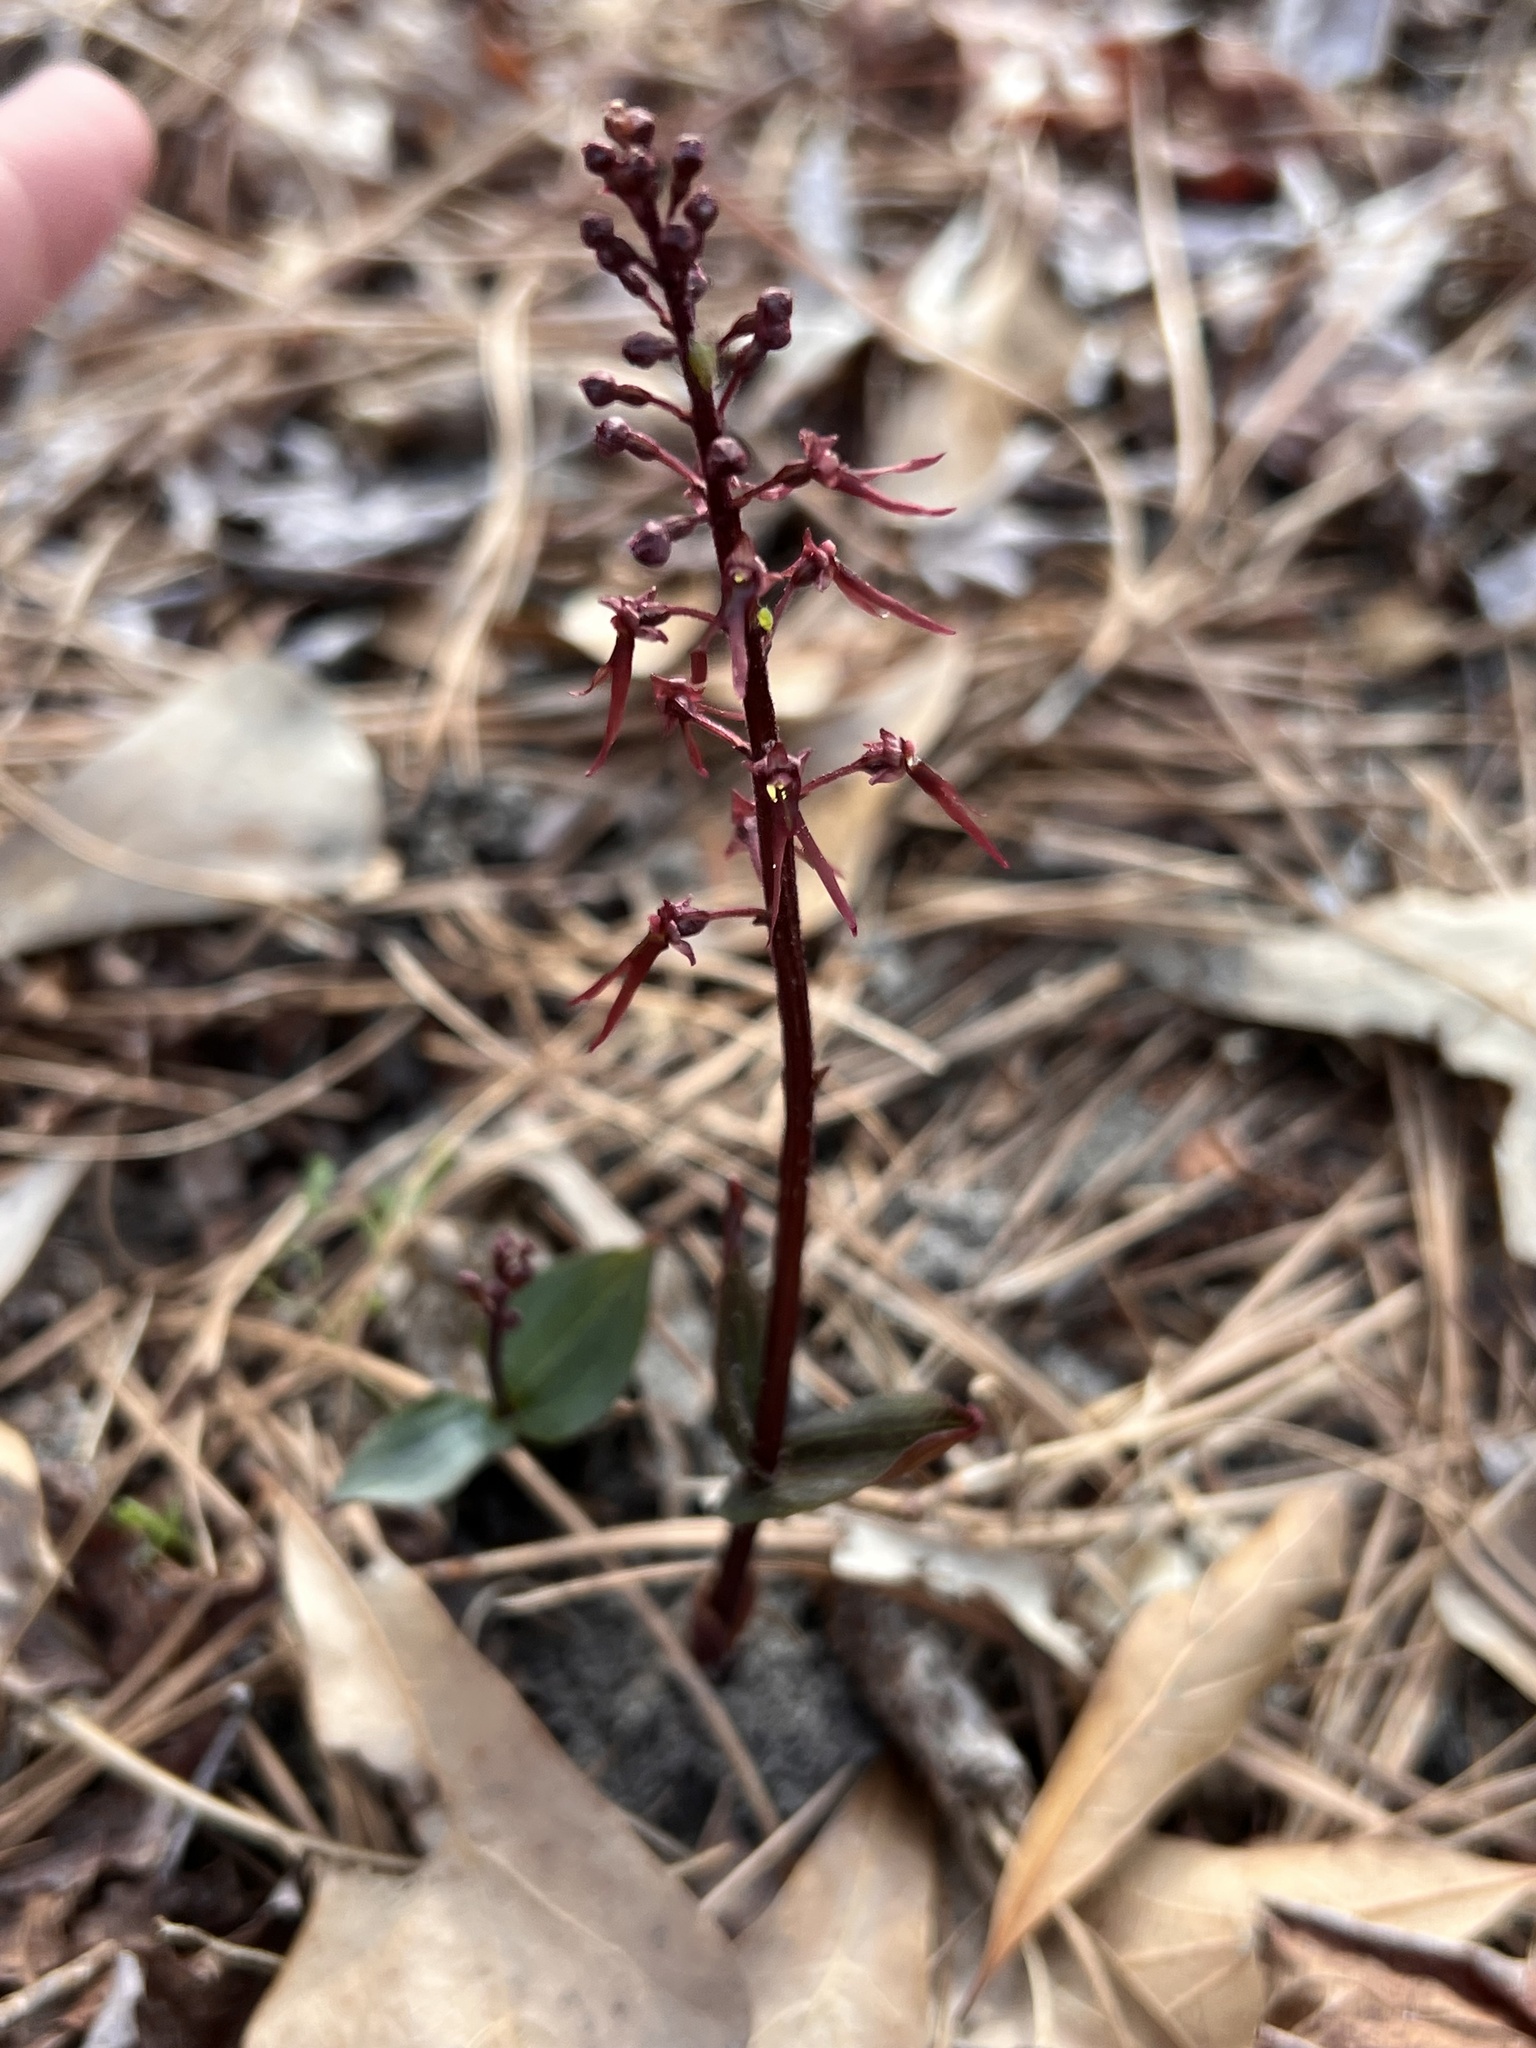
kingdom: Plantae
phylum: Tracheophyta
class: Liliopsida
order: Asparagales
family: Orchidaceae
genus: Neottia
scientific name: Neottia bifolia
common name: Southern twayblade
